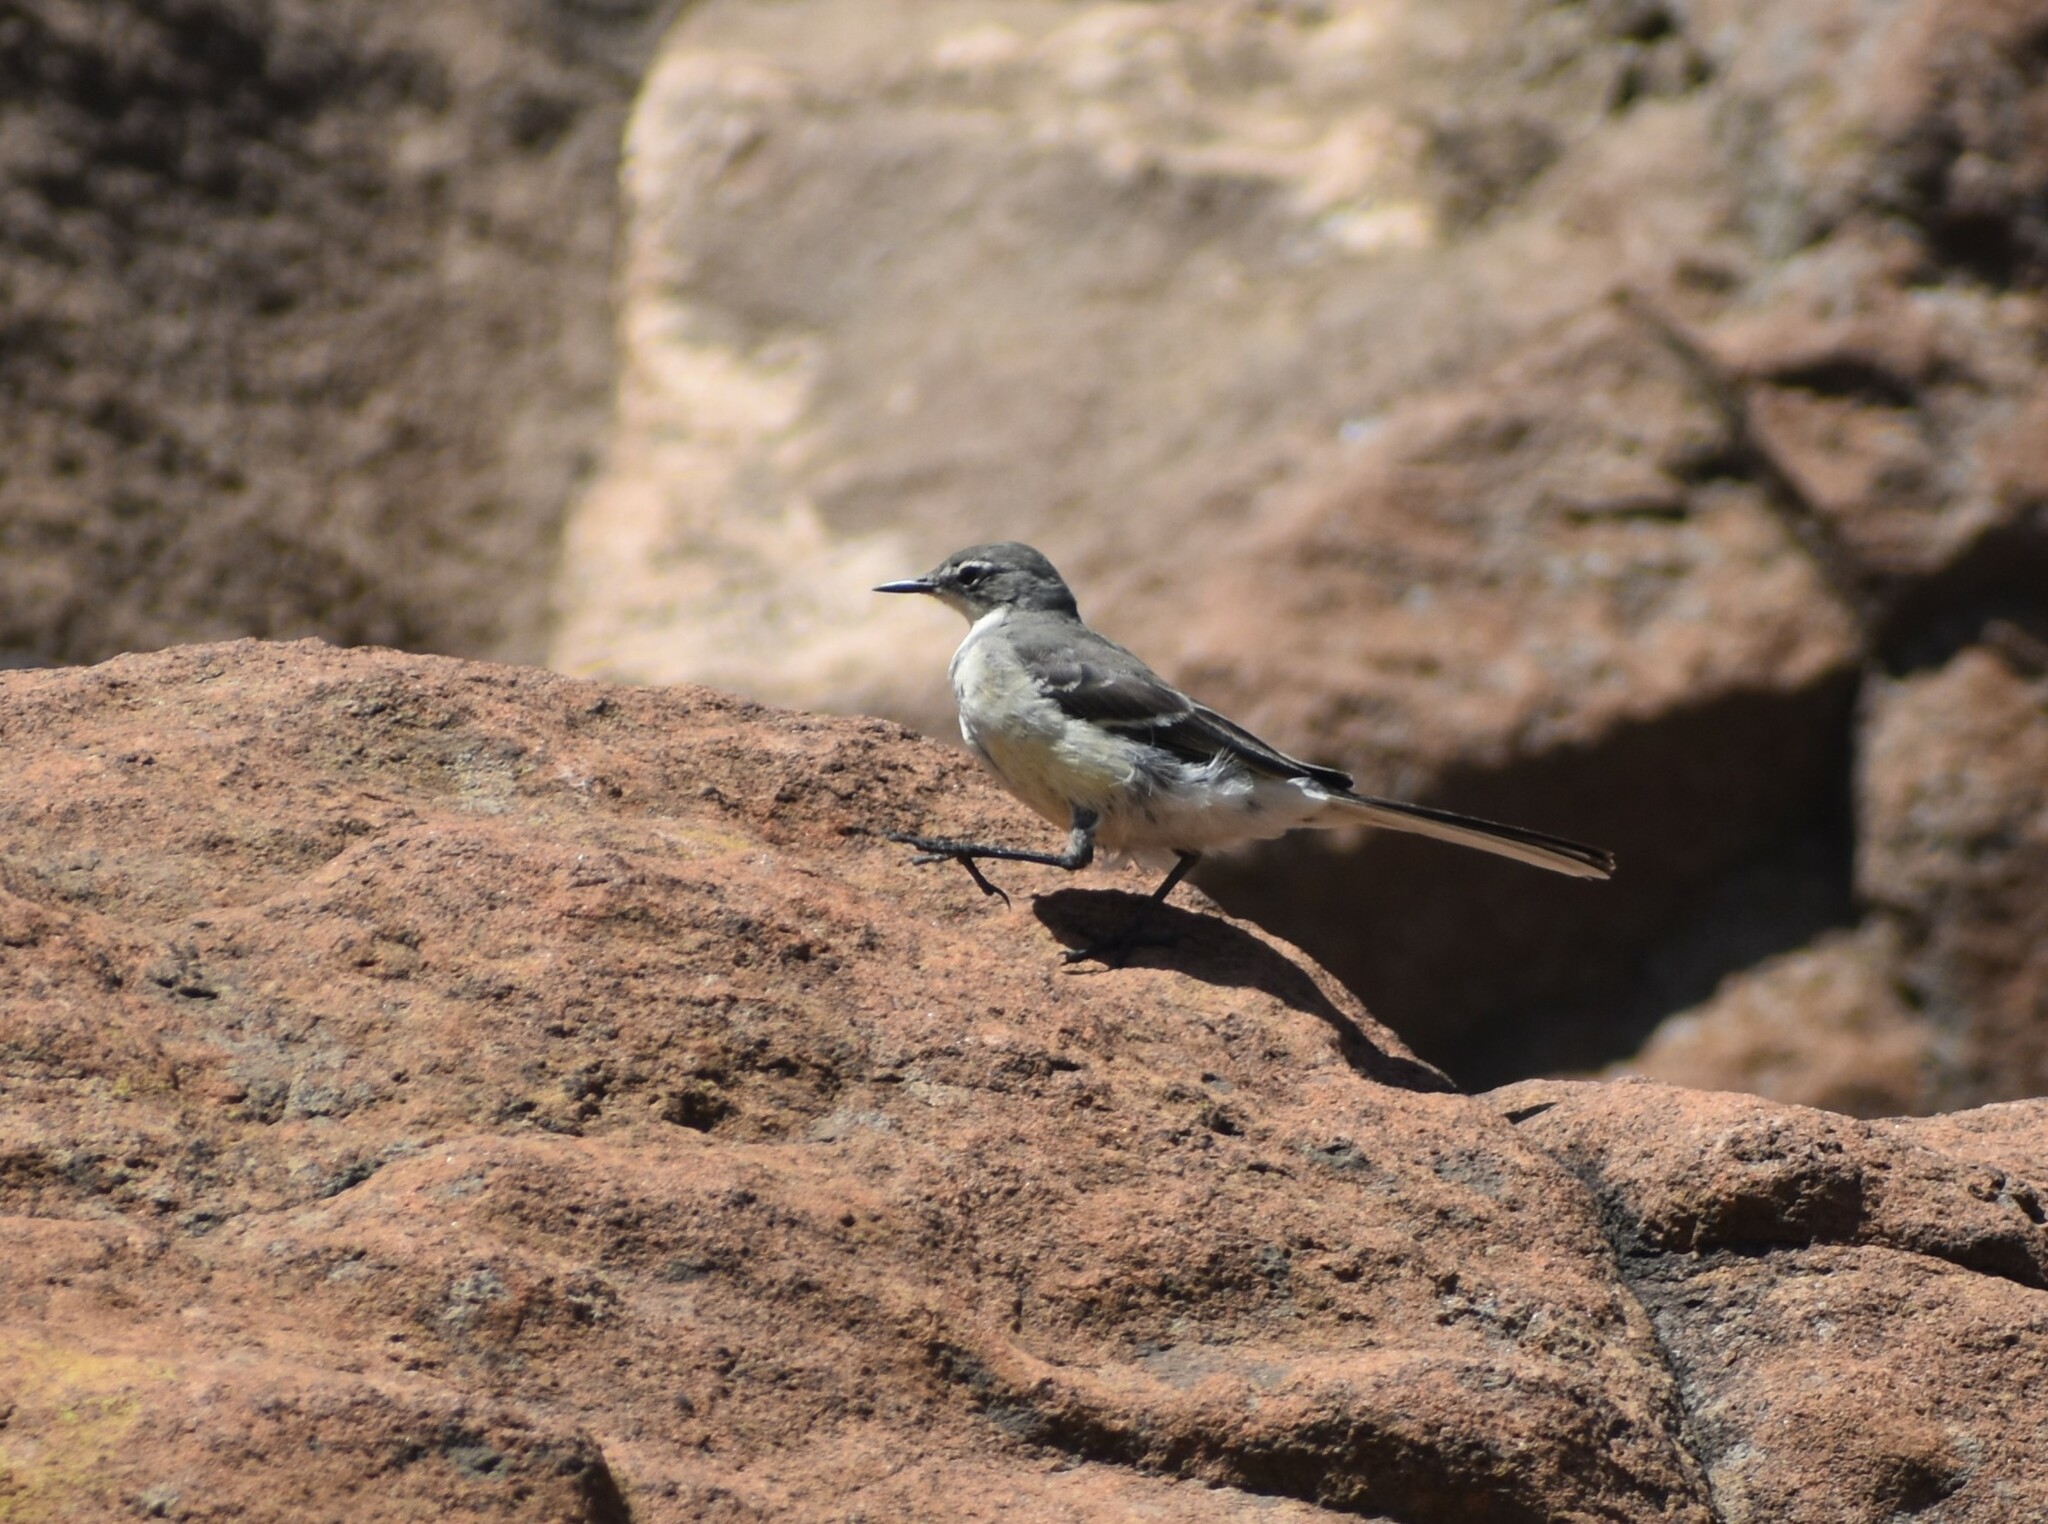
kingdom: Animalia
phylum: Chordata
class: Aves
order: Passeriformes
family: Motacillidae
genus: Motacilla
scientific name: Motacilla capensis
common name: Cape wagtail
